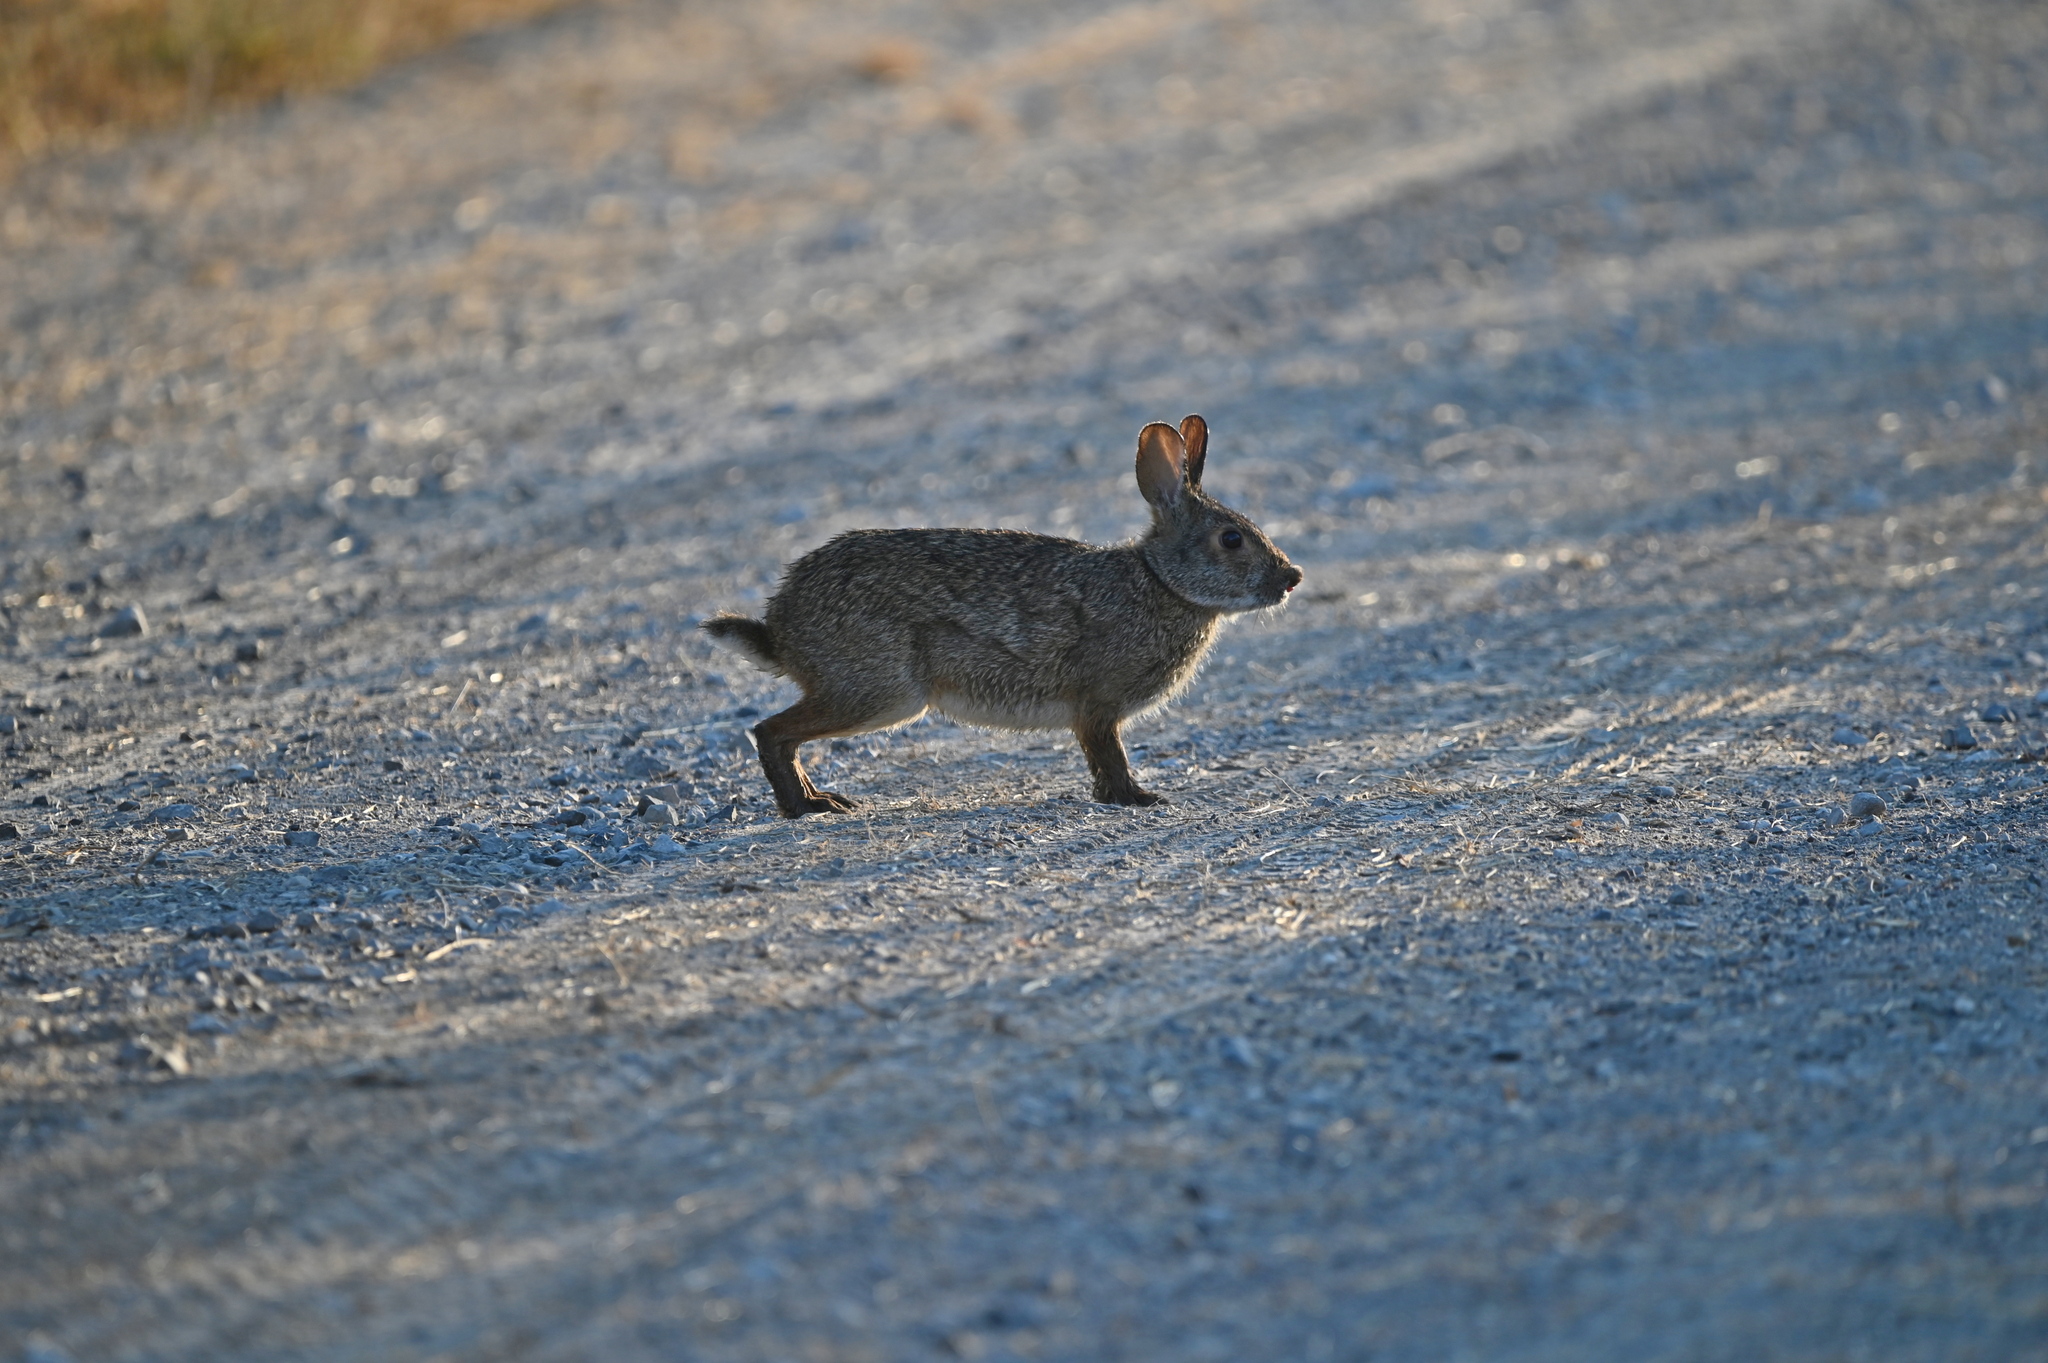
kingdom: Animalia
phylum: Chordata
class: Mammalia
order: Lagomorpha
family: Leporidae
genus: Sylvilagus
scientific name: Sylvilagus aquaticus
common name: Swamp rabbit
